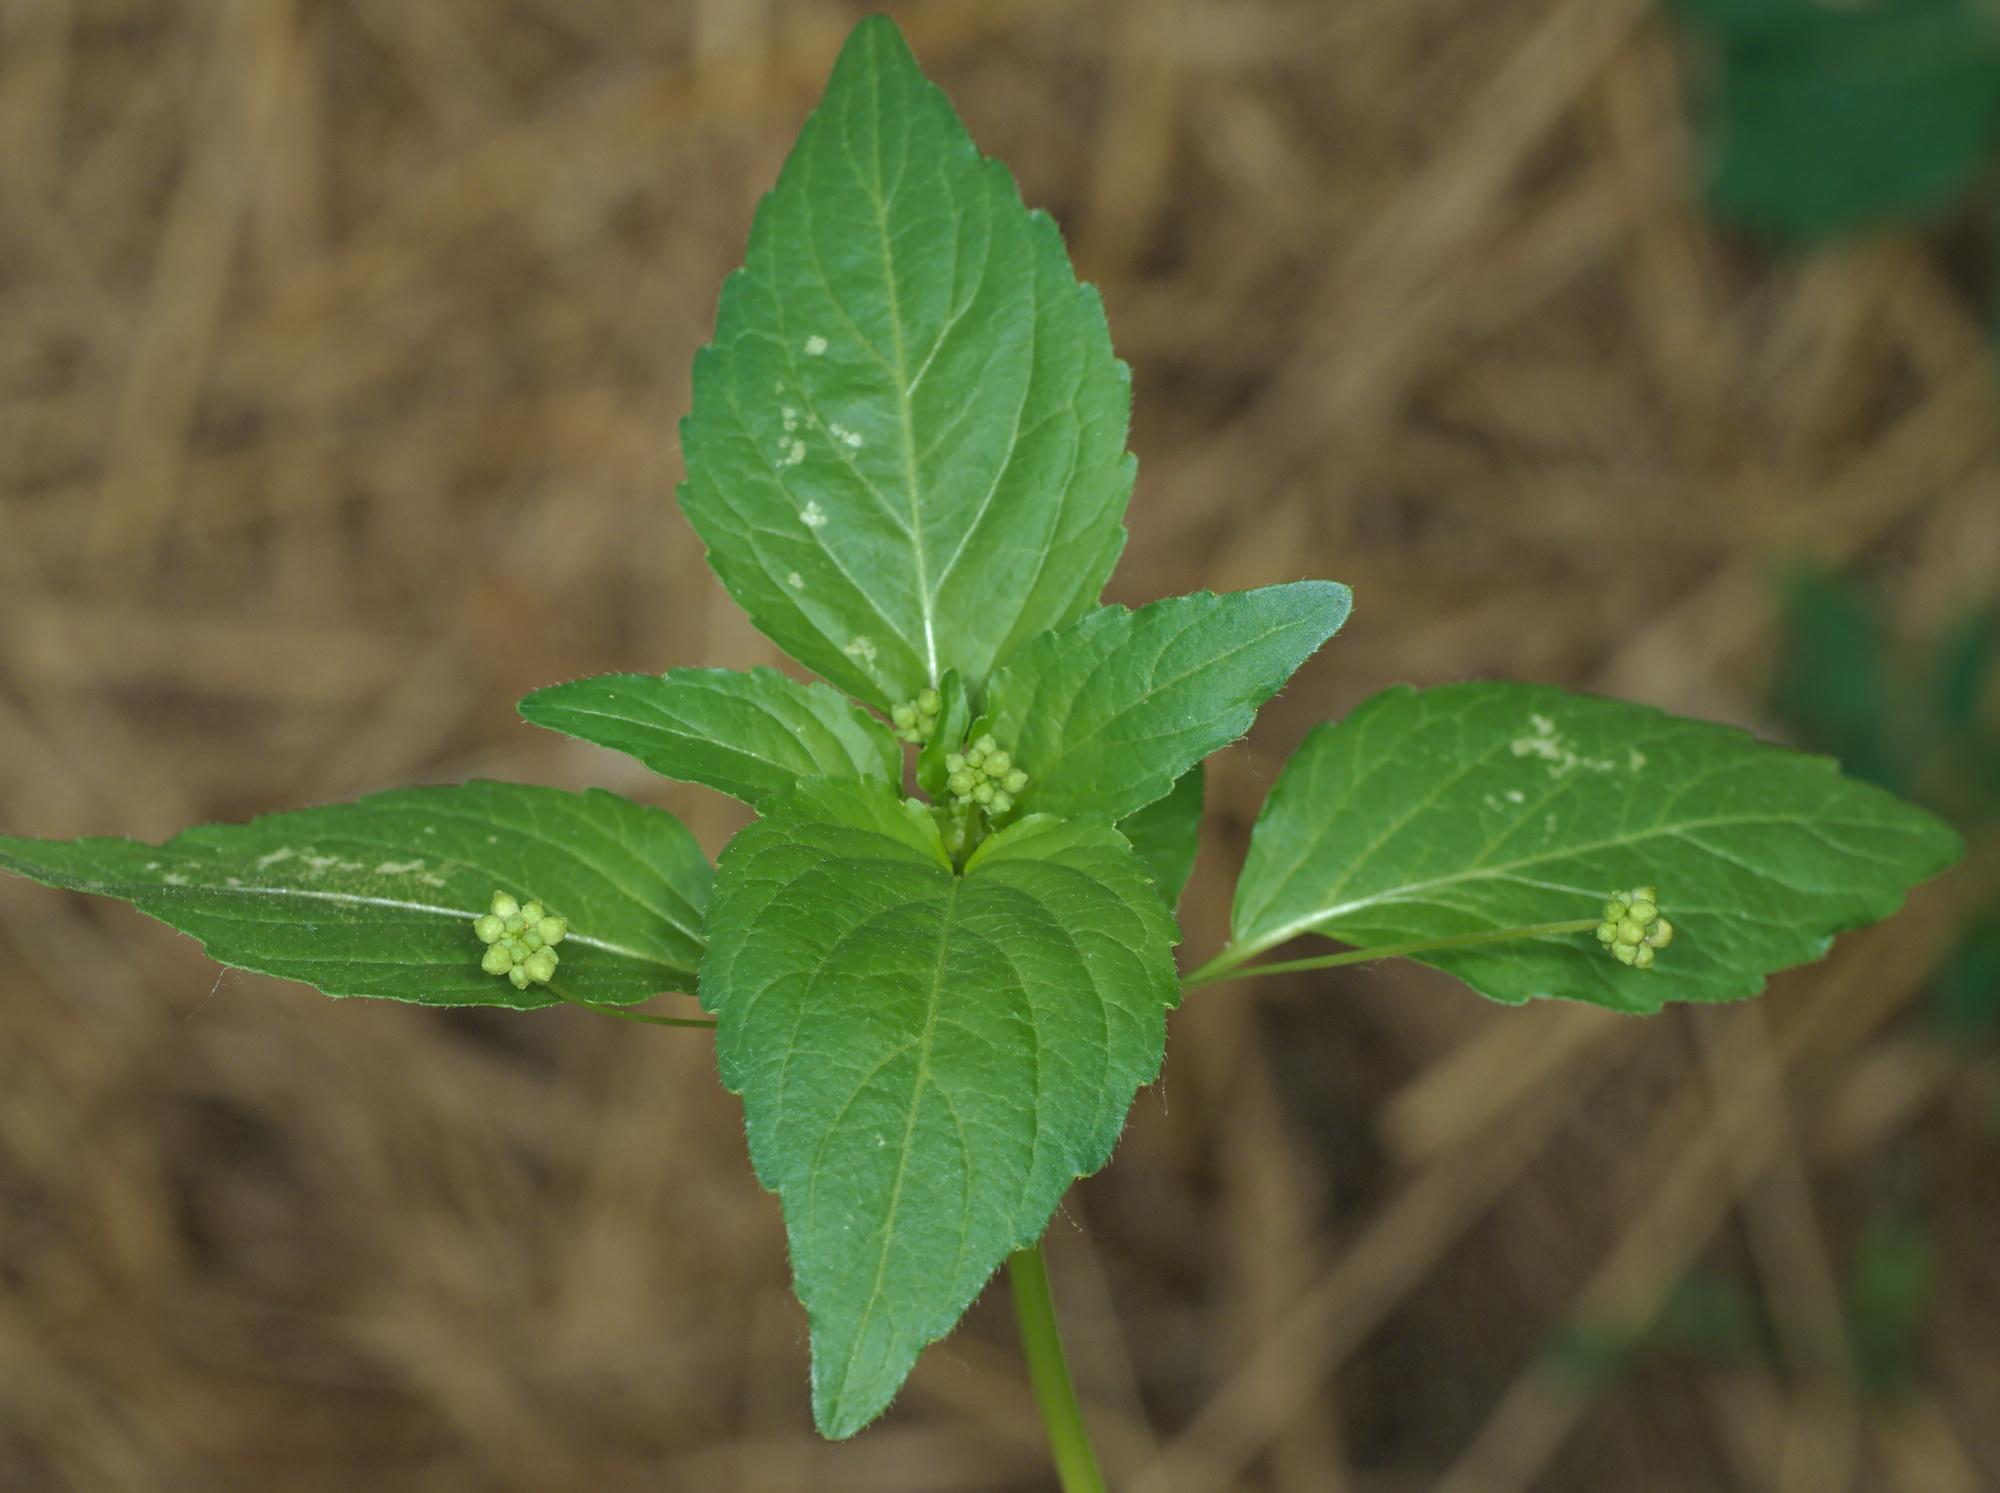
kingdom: Plantae
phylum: Tracheophyta
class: Magnoliopsida
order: Malpighiales
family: Euphorbiaceae
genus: Mercurialis
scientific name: Mercurialis annua
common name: Annual mercury
